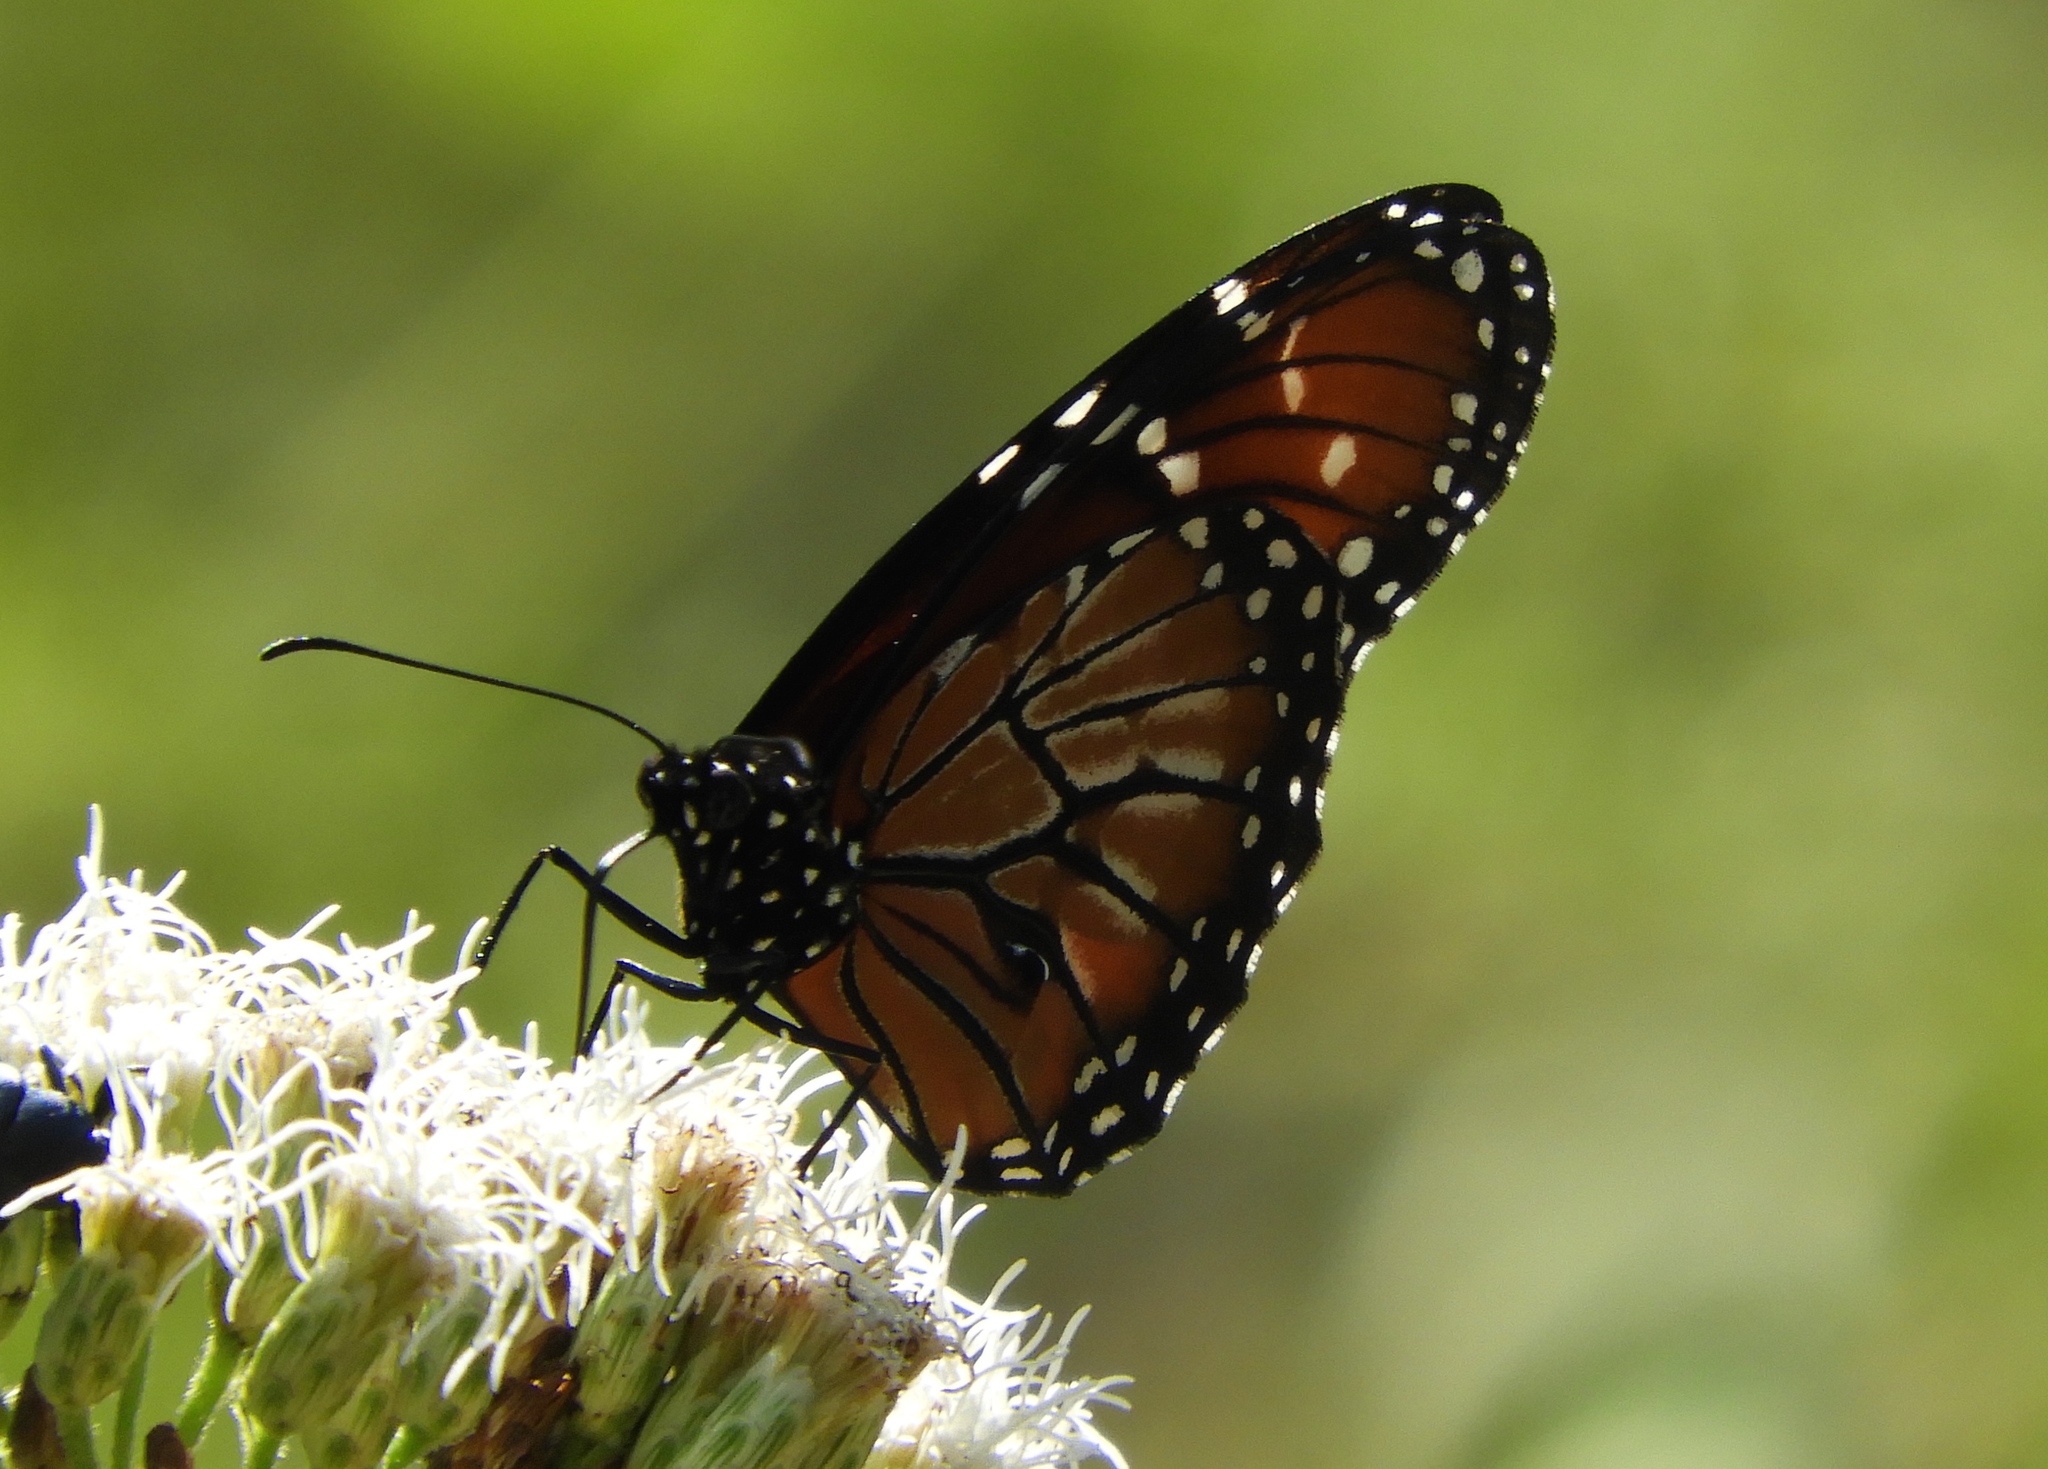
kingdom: Animalia
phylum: Arthropoda
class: Insecta
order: Lepidoptera
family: Nymphalidae
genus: Danaus
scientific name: Danaus eresimus
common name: Soldier
